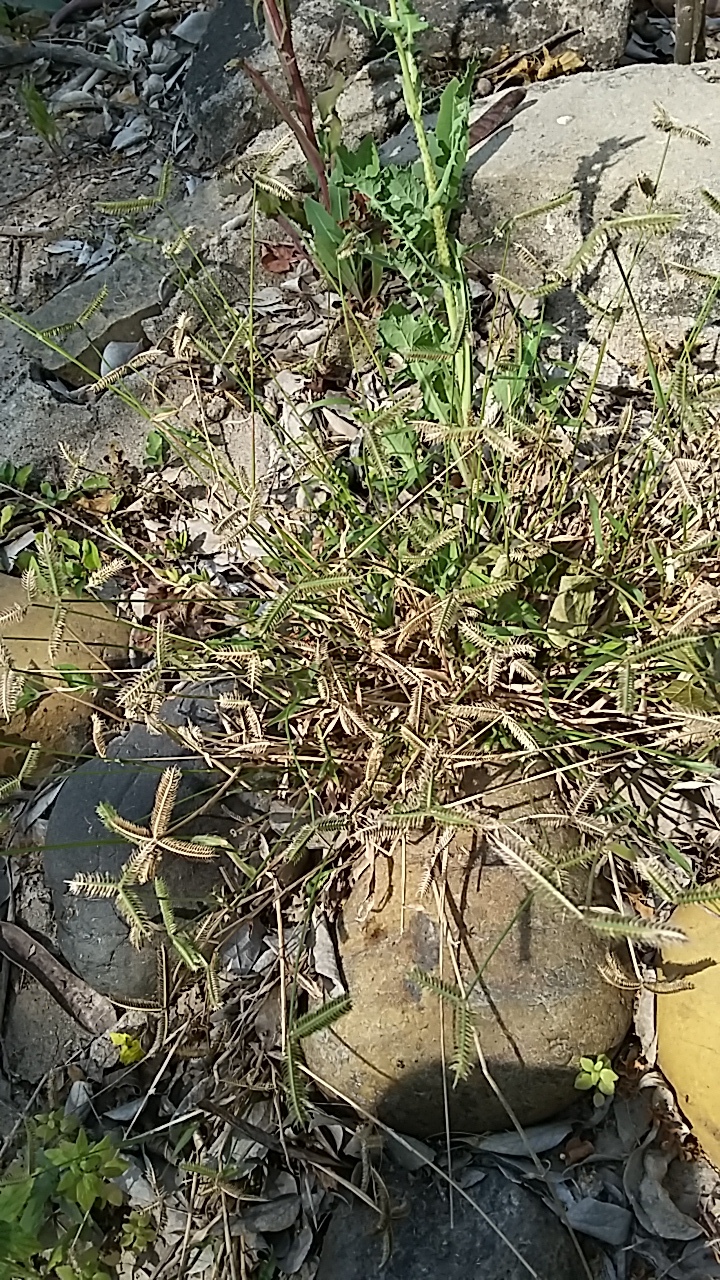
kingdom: Plantae
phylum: Tracheophyta
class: Liliopsida
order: Poales
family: Poaceae
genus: Dactyloctenium
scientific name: Dactyloctenium aegyptium
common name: Egyptian grass
